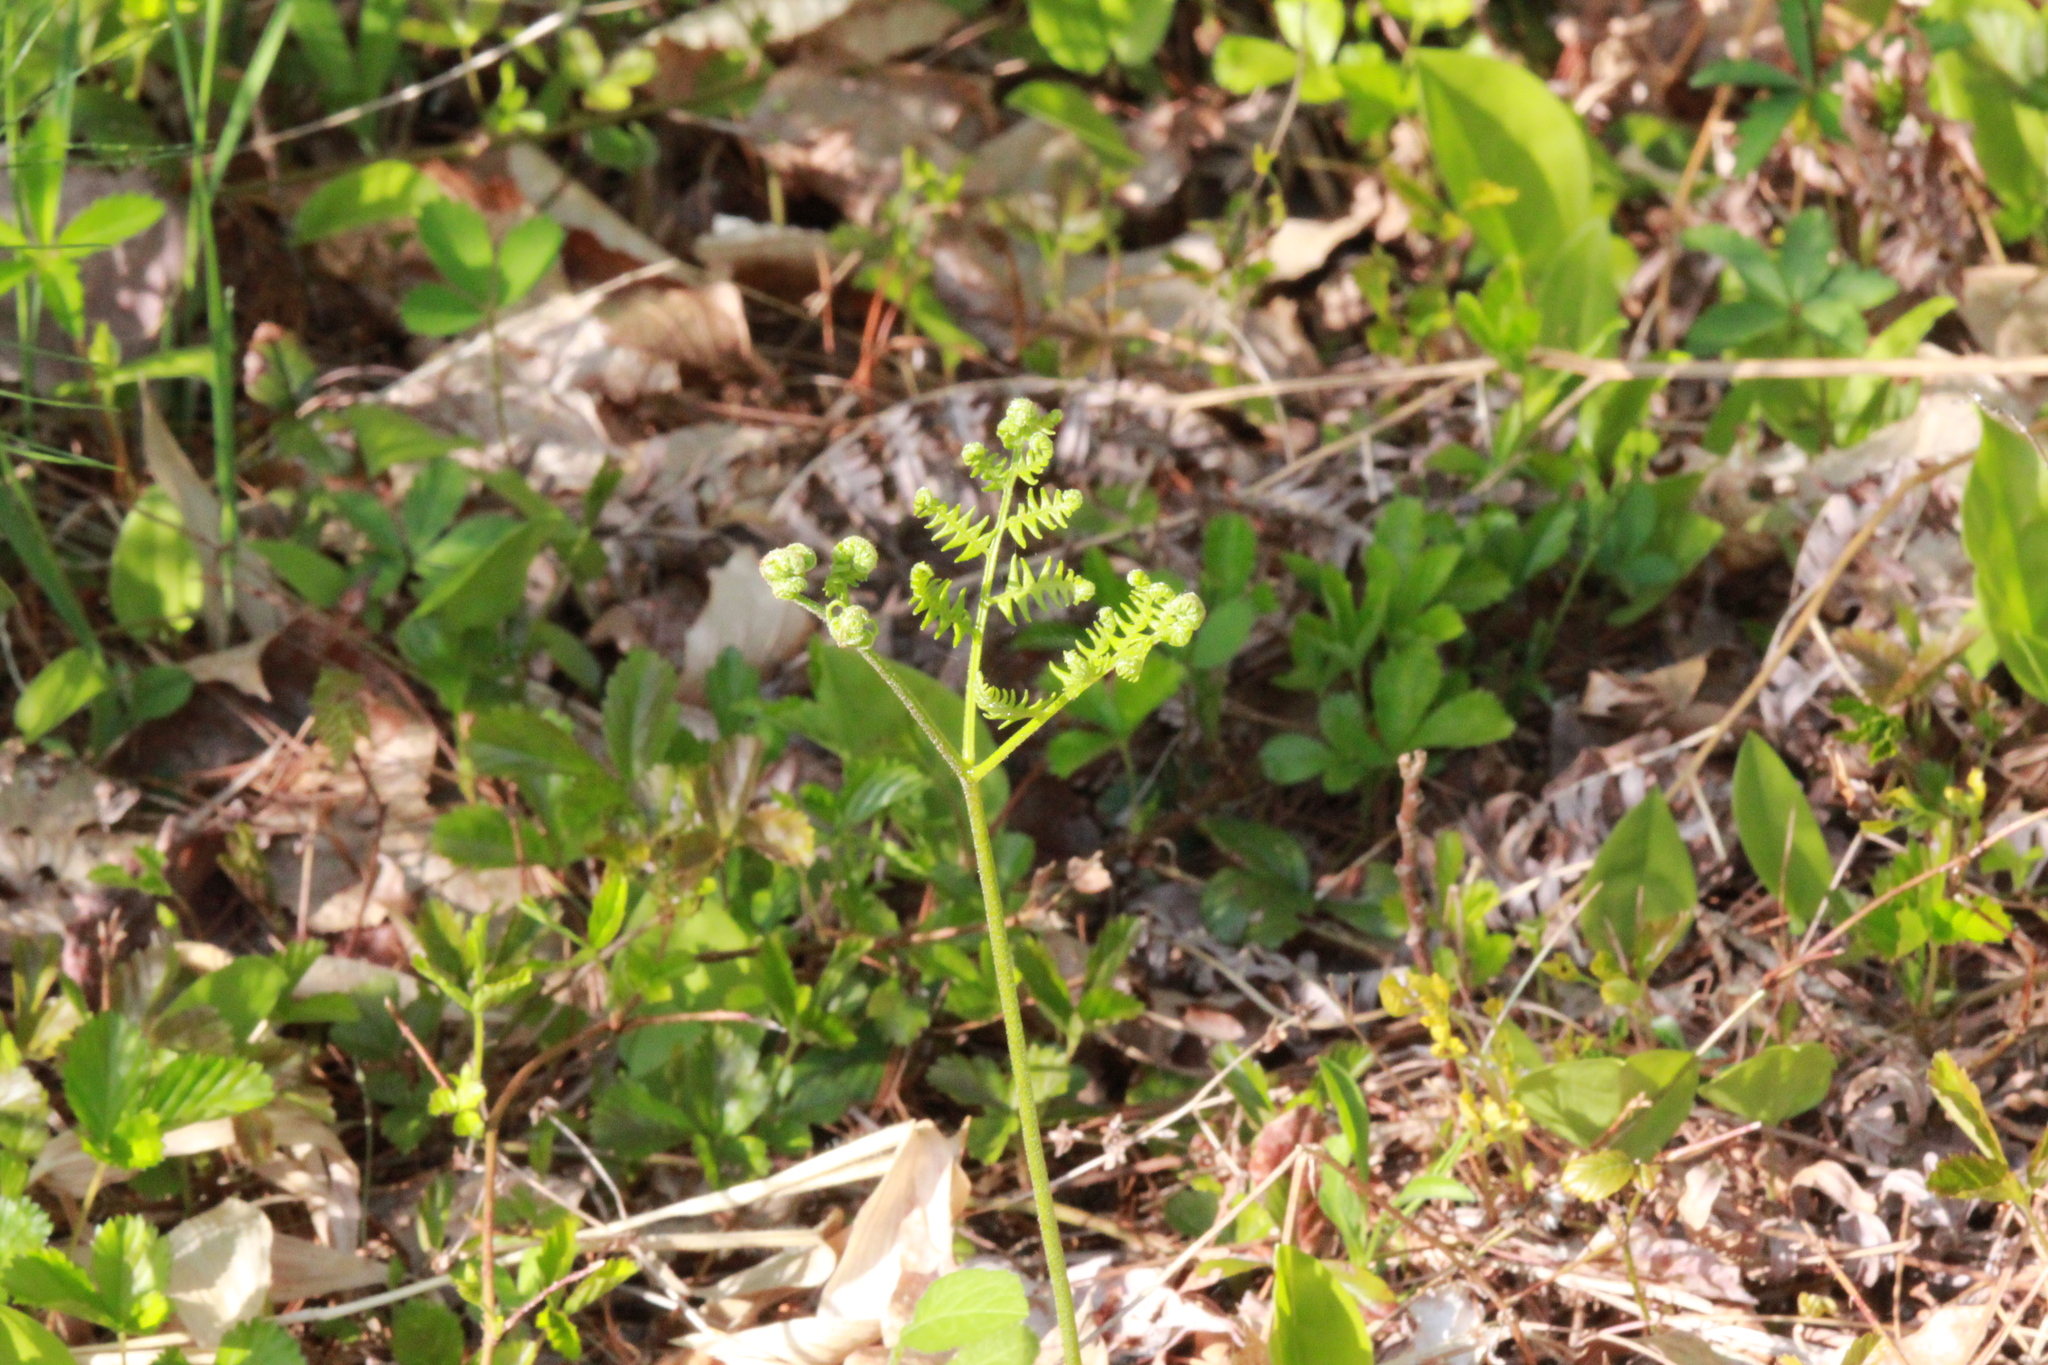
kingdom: Plantae
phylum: Tracheophyta
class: Polypodiopsida
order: Polypodiales
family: Dennstaedtiaceae
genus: Pteridium
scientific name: Pteridium aquilinum
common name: Bracken
